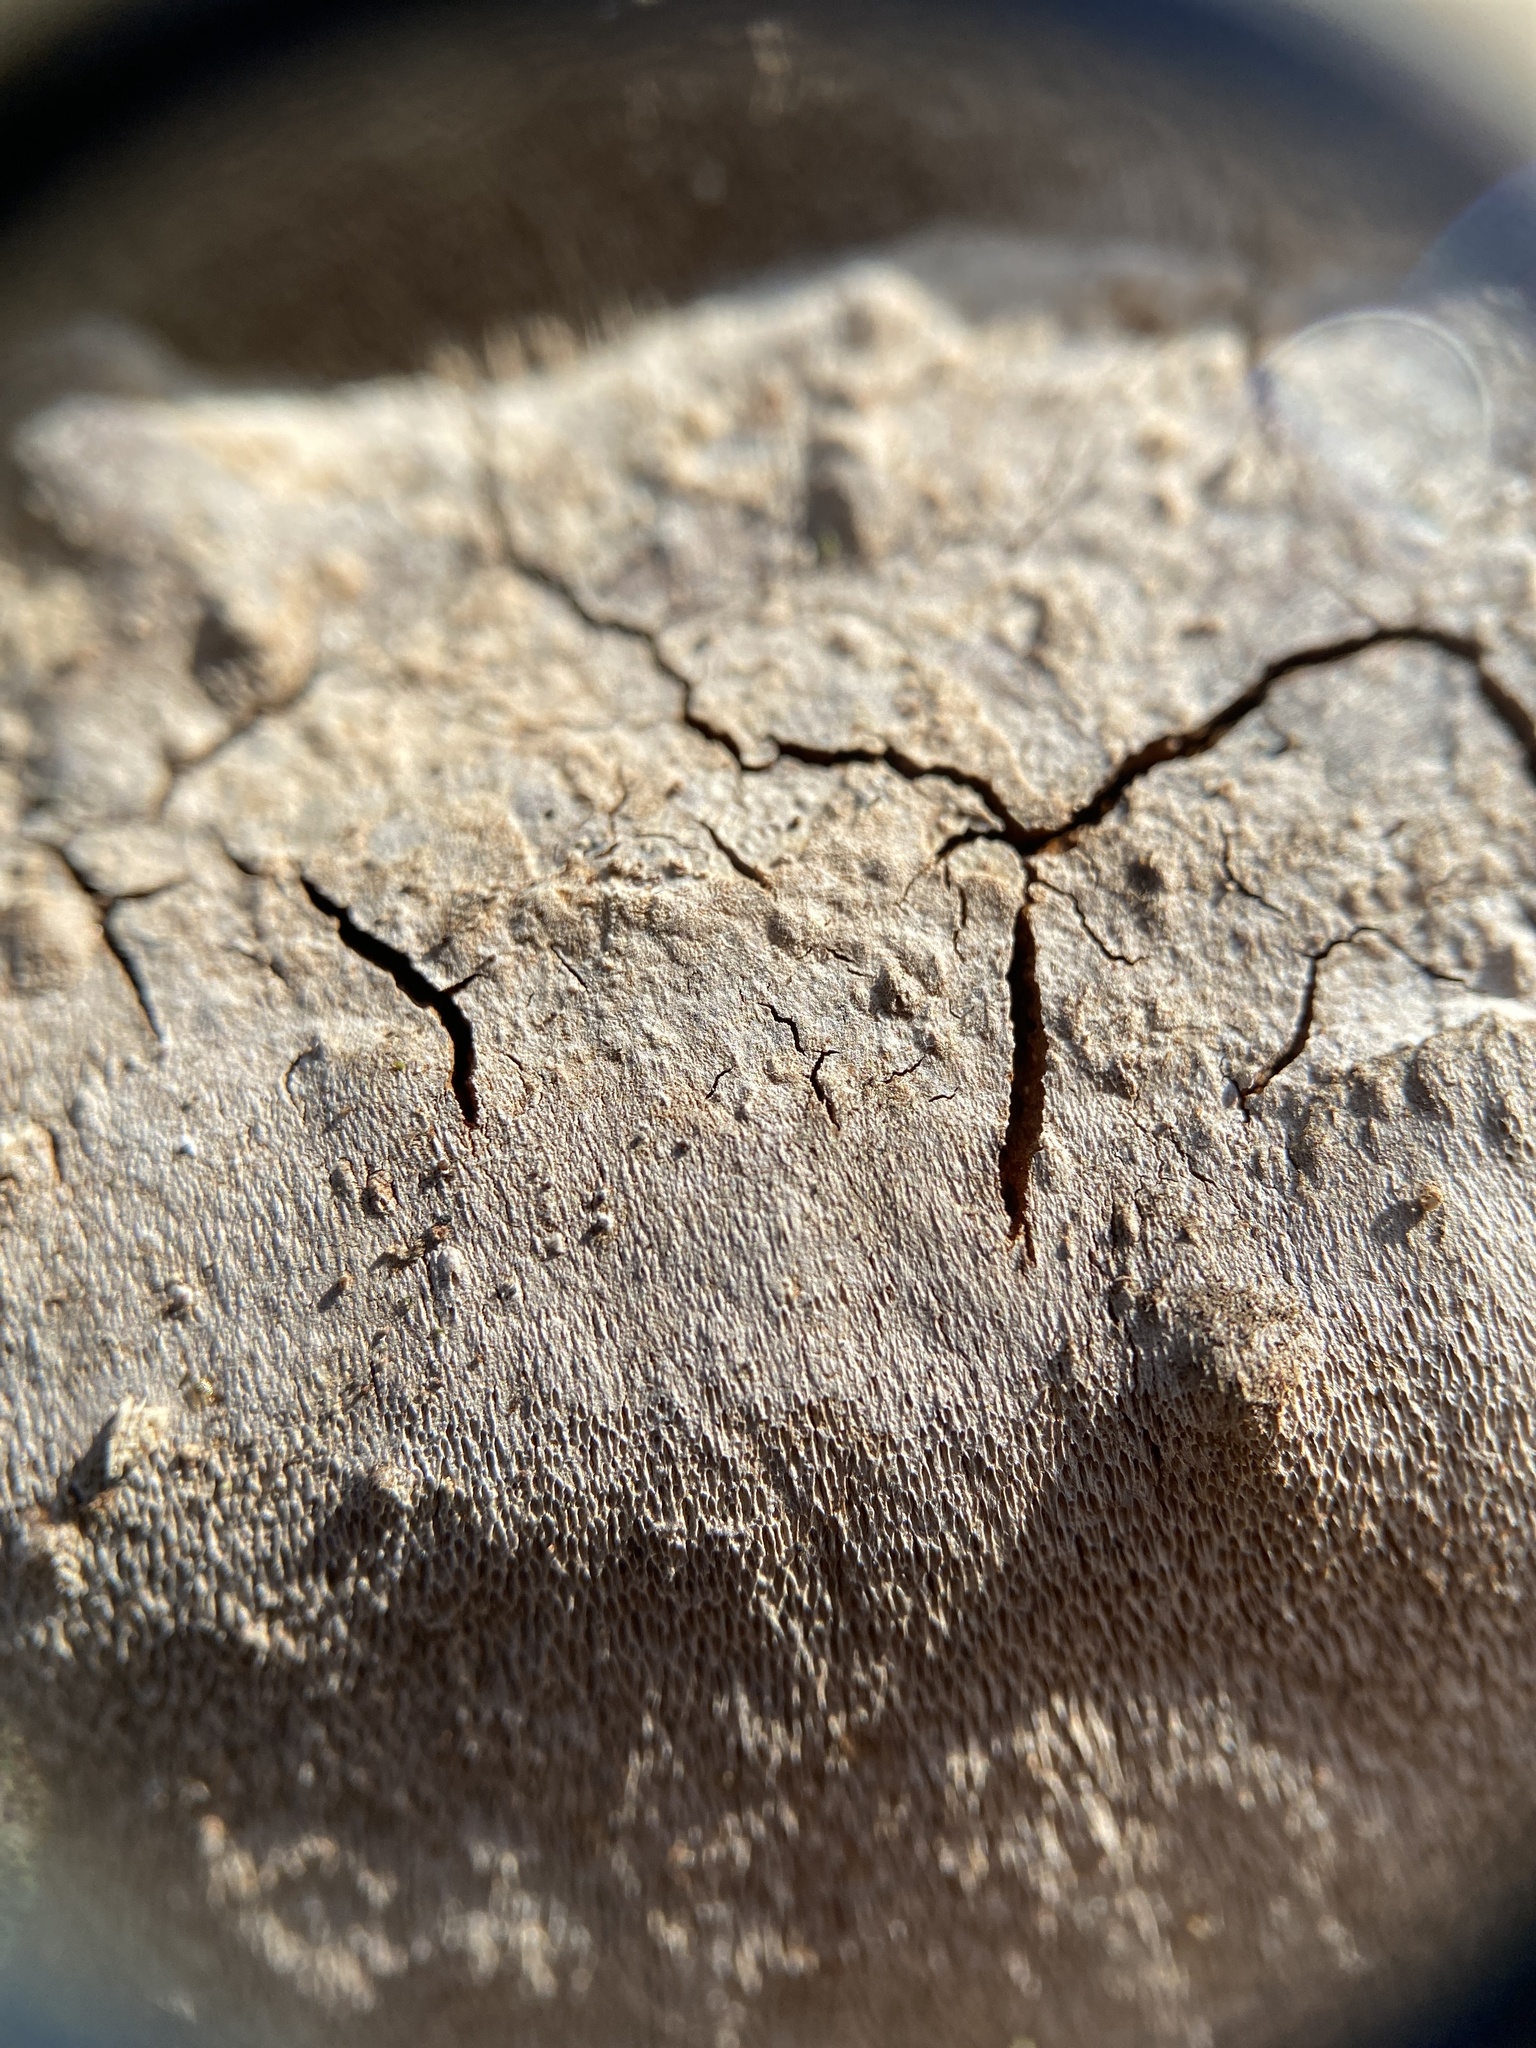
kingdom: Fungi
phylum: Basidiomycota
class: Agaricomycetes
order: Hymenochaetales
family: Hymenochaetaceae
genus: Phellinus
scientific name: Phellinus betulinus
